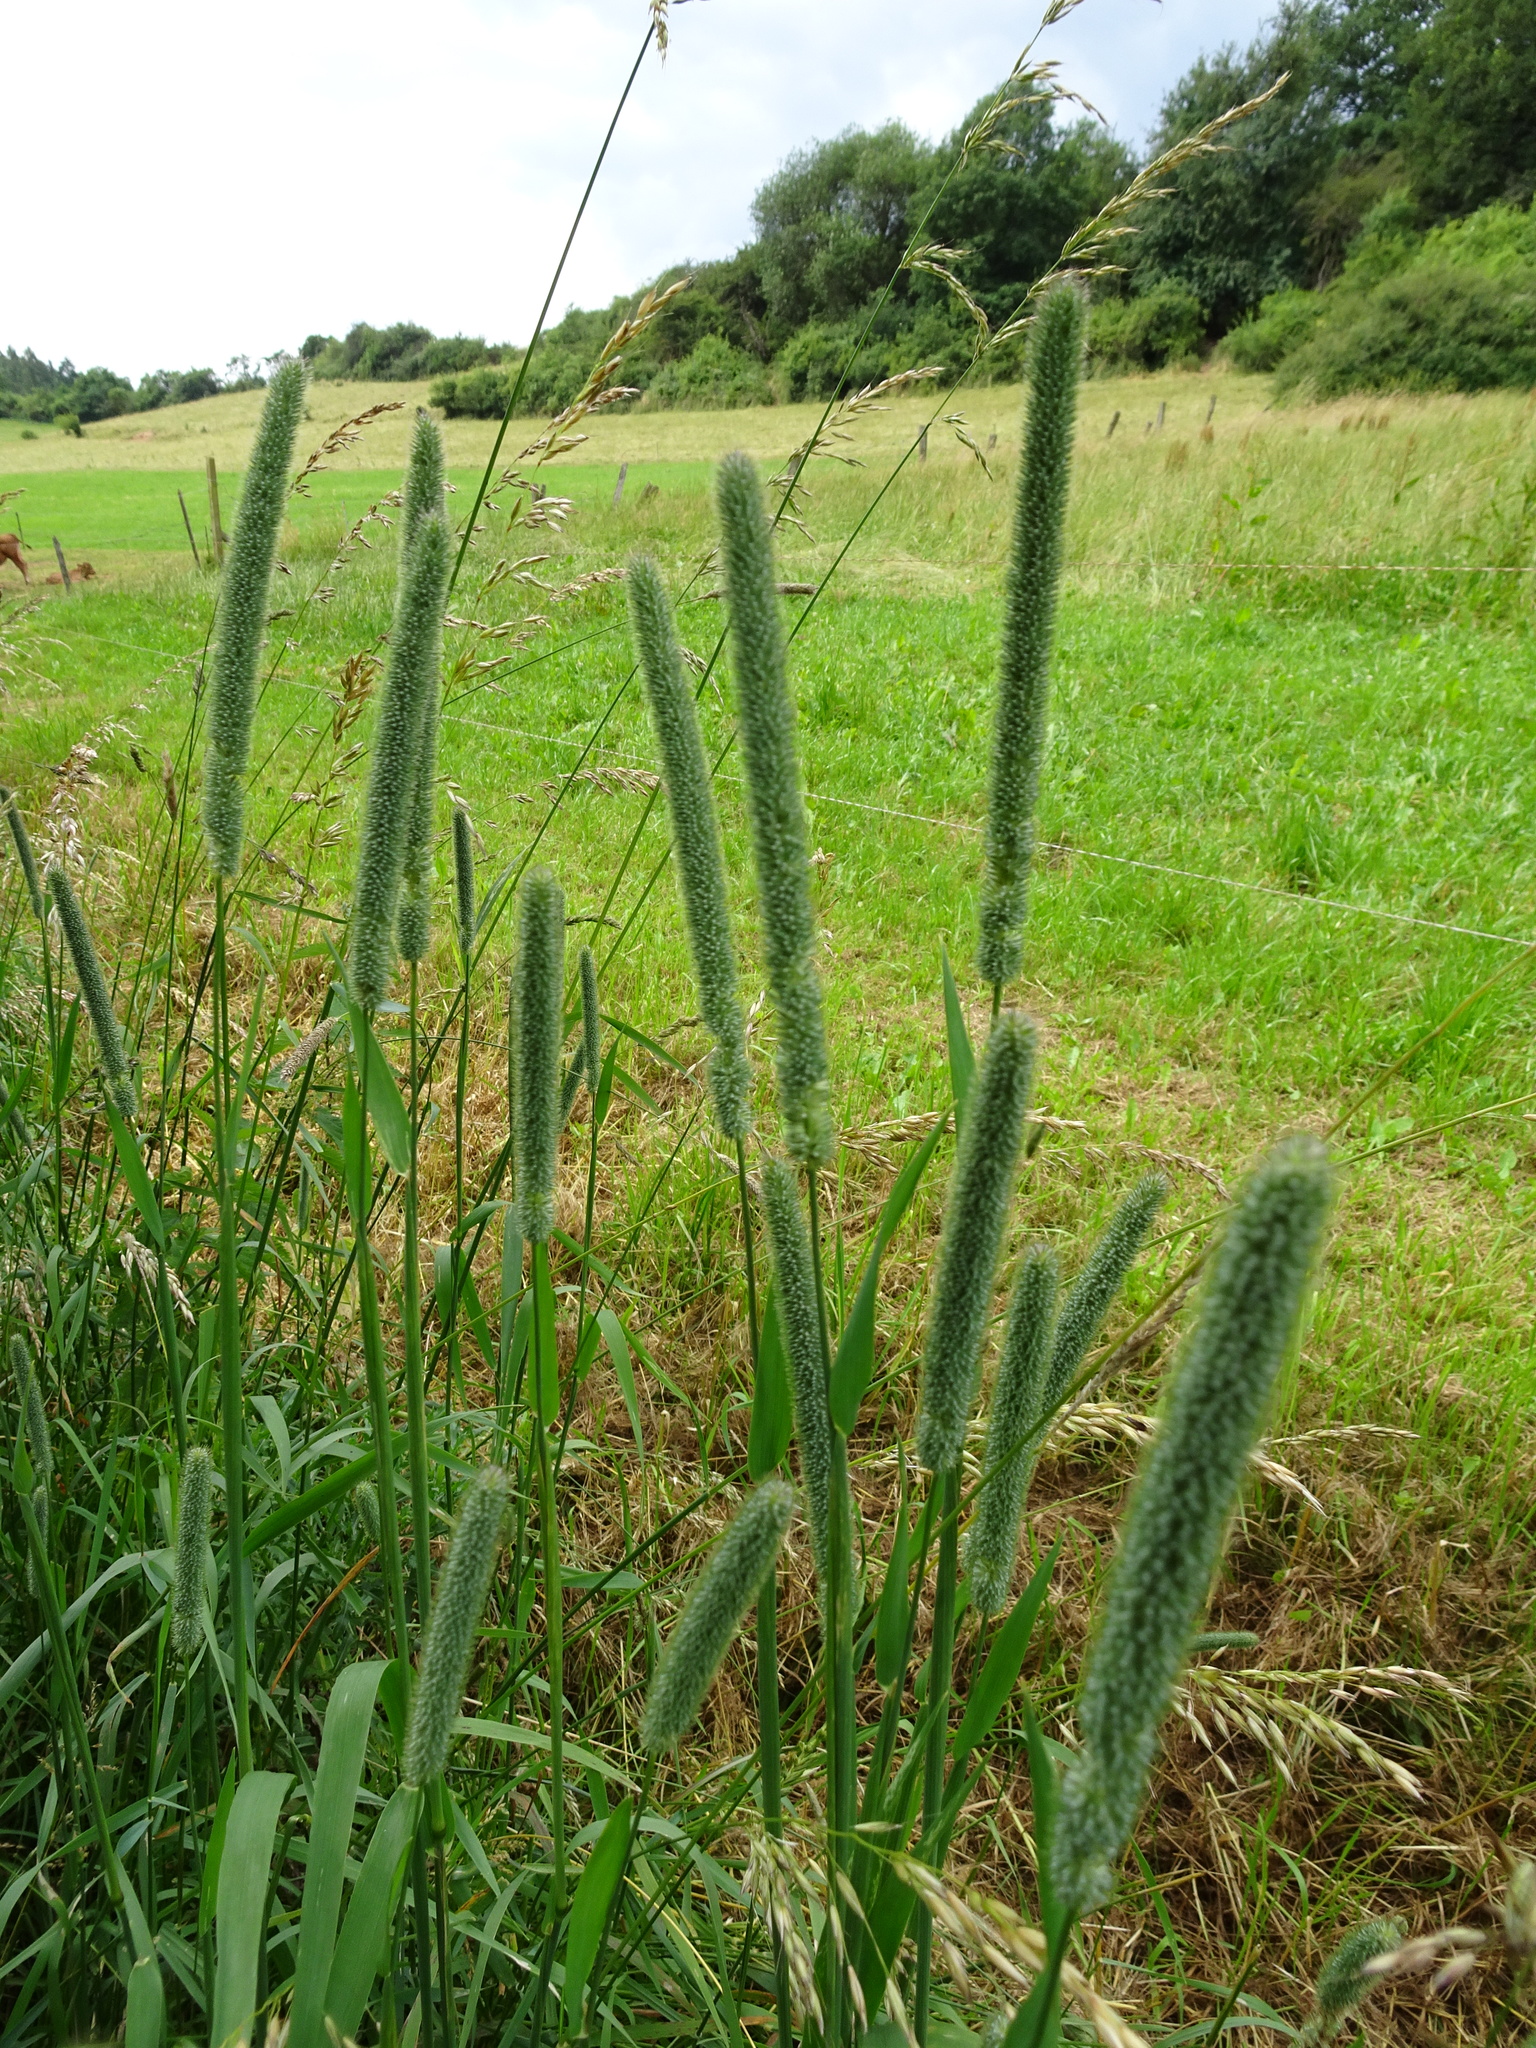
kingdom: Plantae
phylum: Tracheophyta
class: Liliopsida
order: Poales
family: Poaceae
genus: Phleum
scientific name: Phleum pratense
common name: Timothy grass
